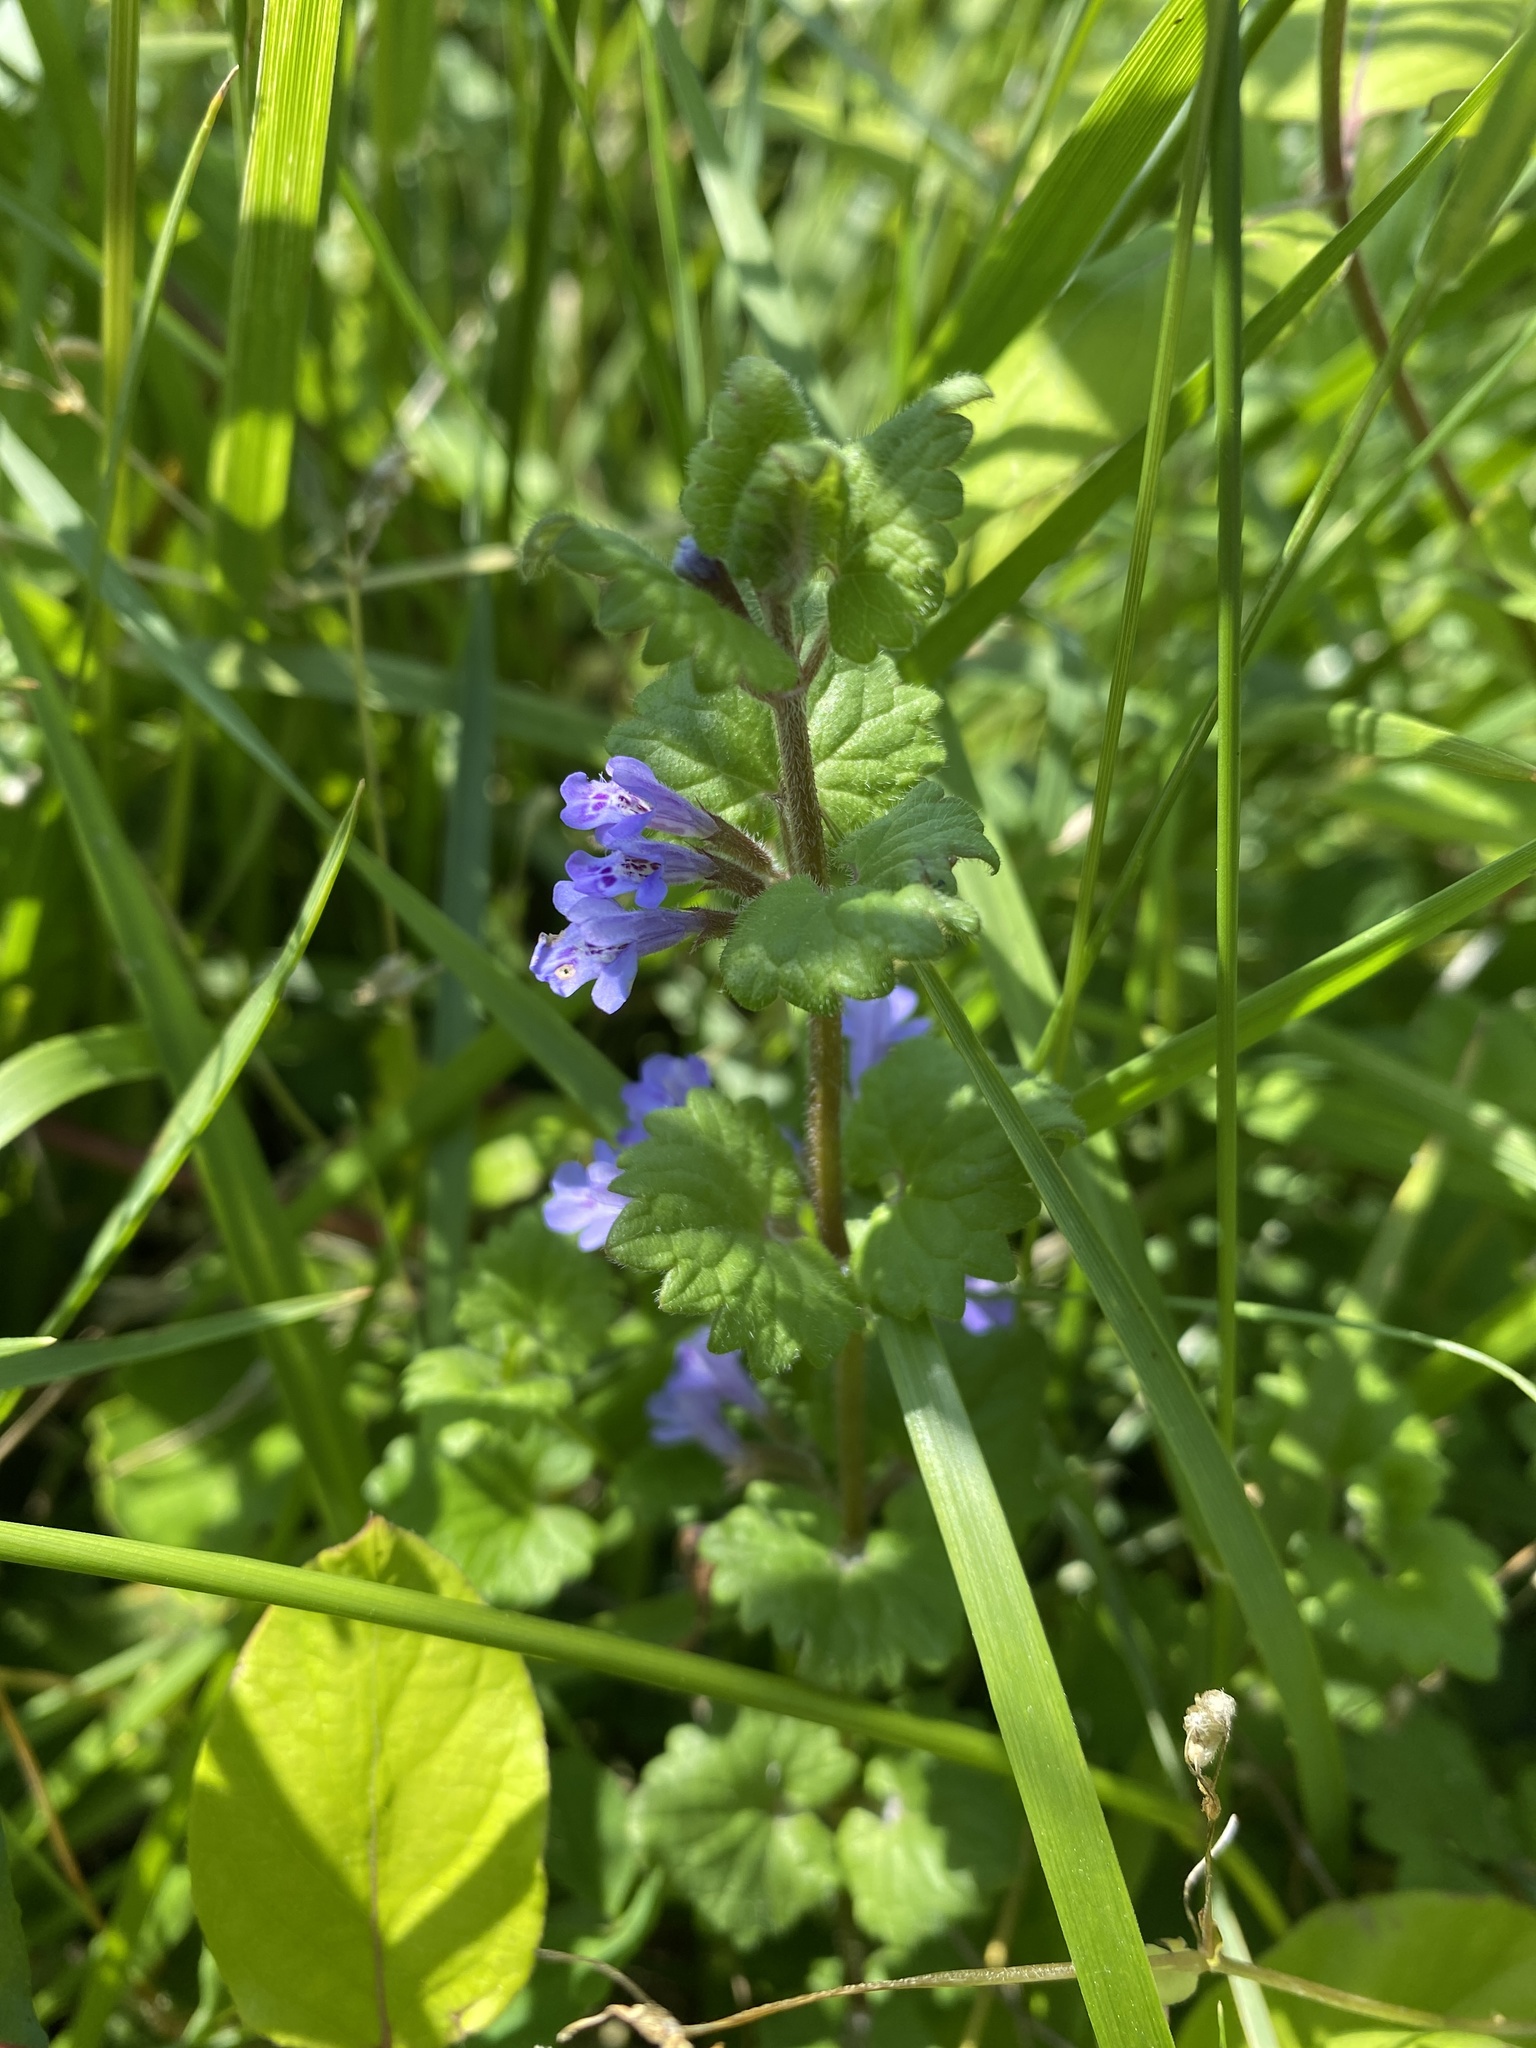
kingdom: Plantae
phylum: Tracheophyta
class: Magnoliopsida
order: Lamiales
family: Lamiaceae
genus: Glechoma
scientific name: Glechoma hederacea
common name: Ground ivy
